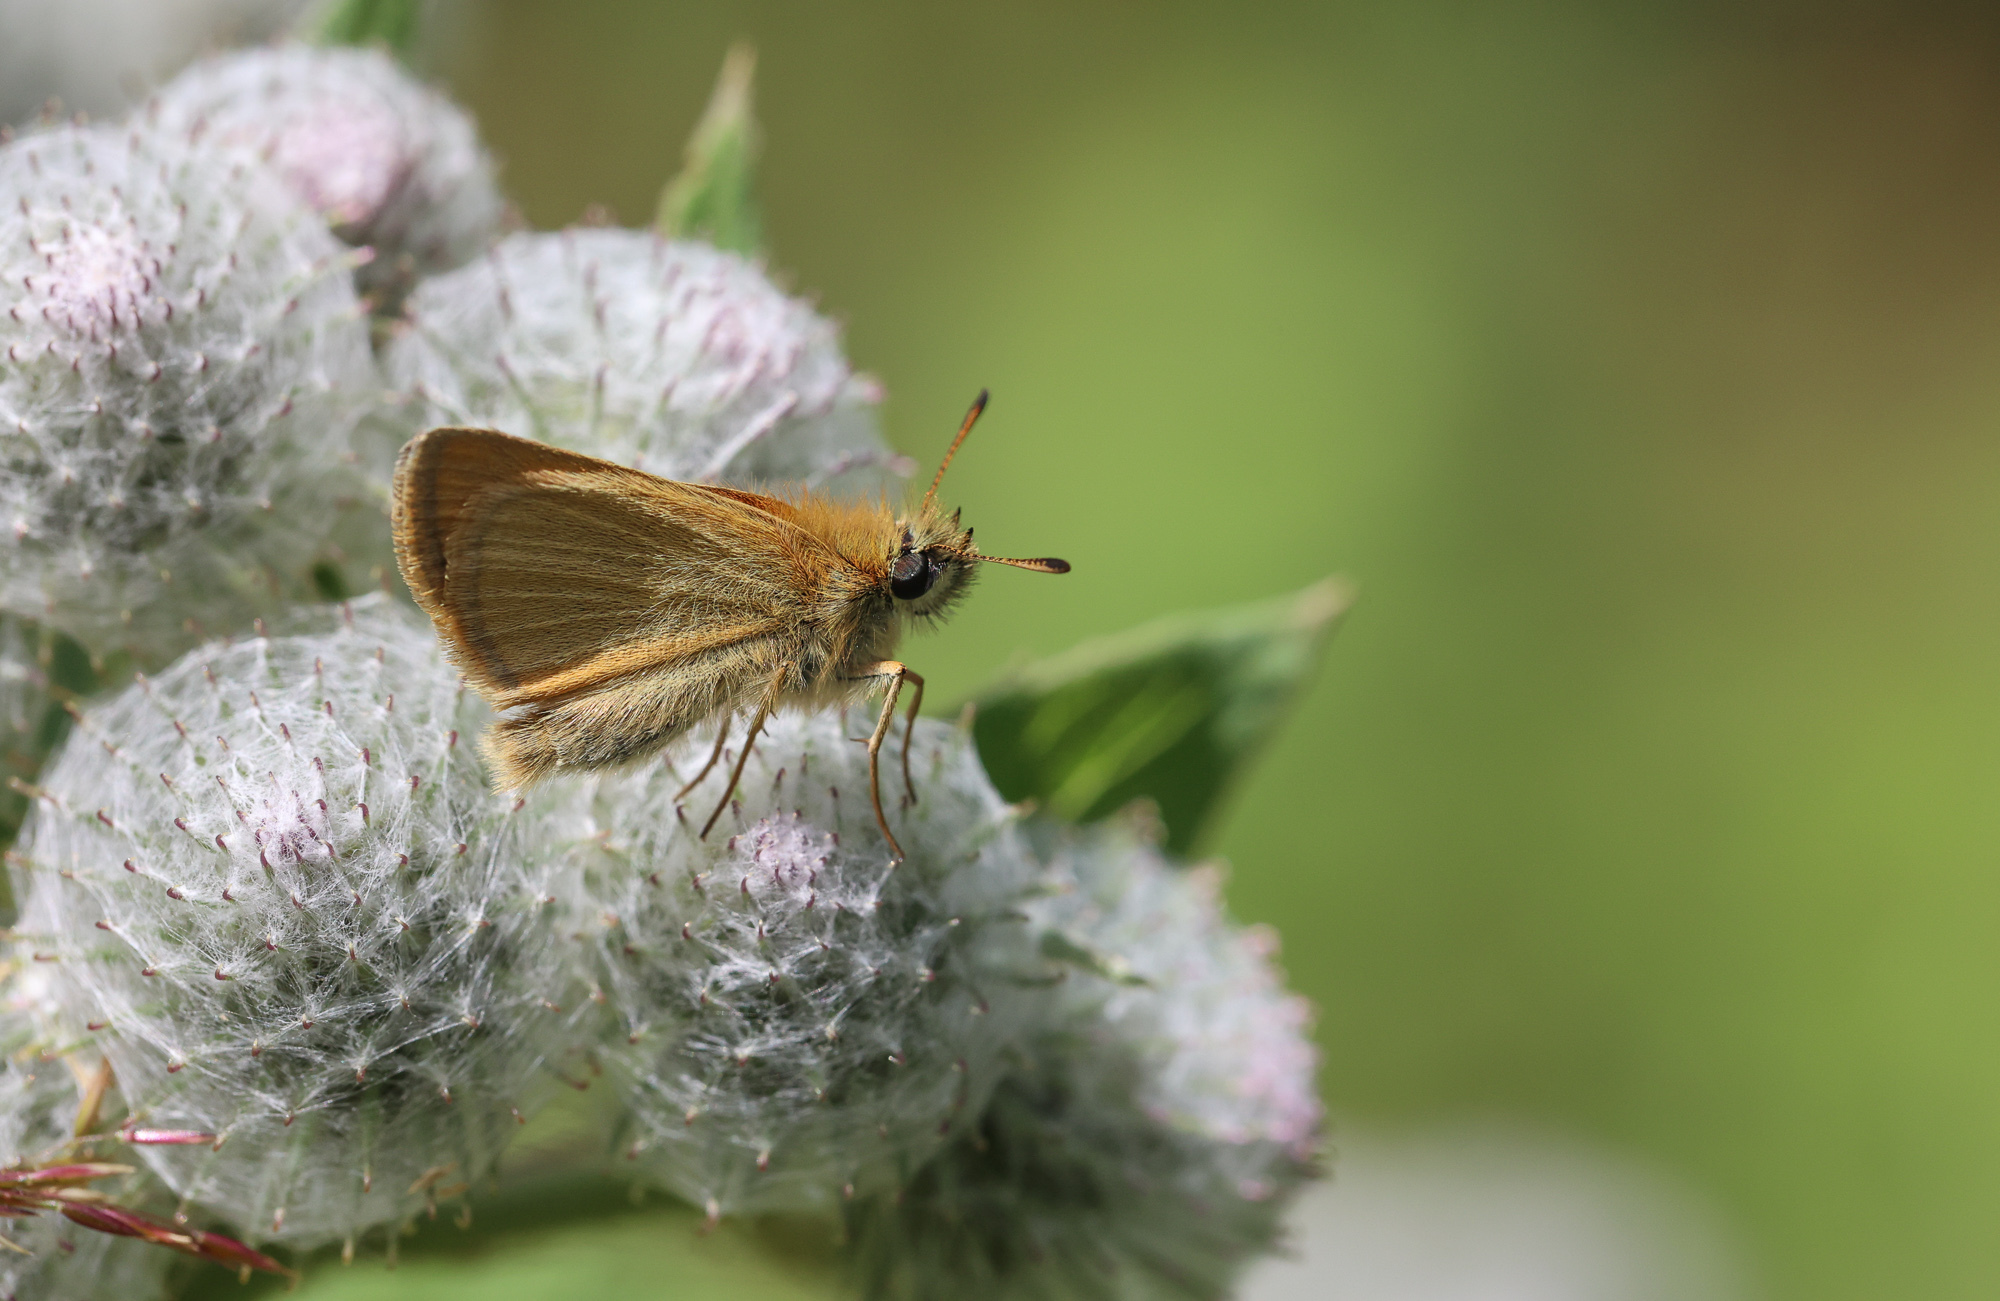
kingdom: Animalia
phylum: Arthropoda
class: Insecta
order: Lepidoptera
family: Hesperiidae
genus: Thymelicus
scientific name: Thymelicus lineola
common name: Essex skipper
